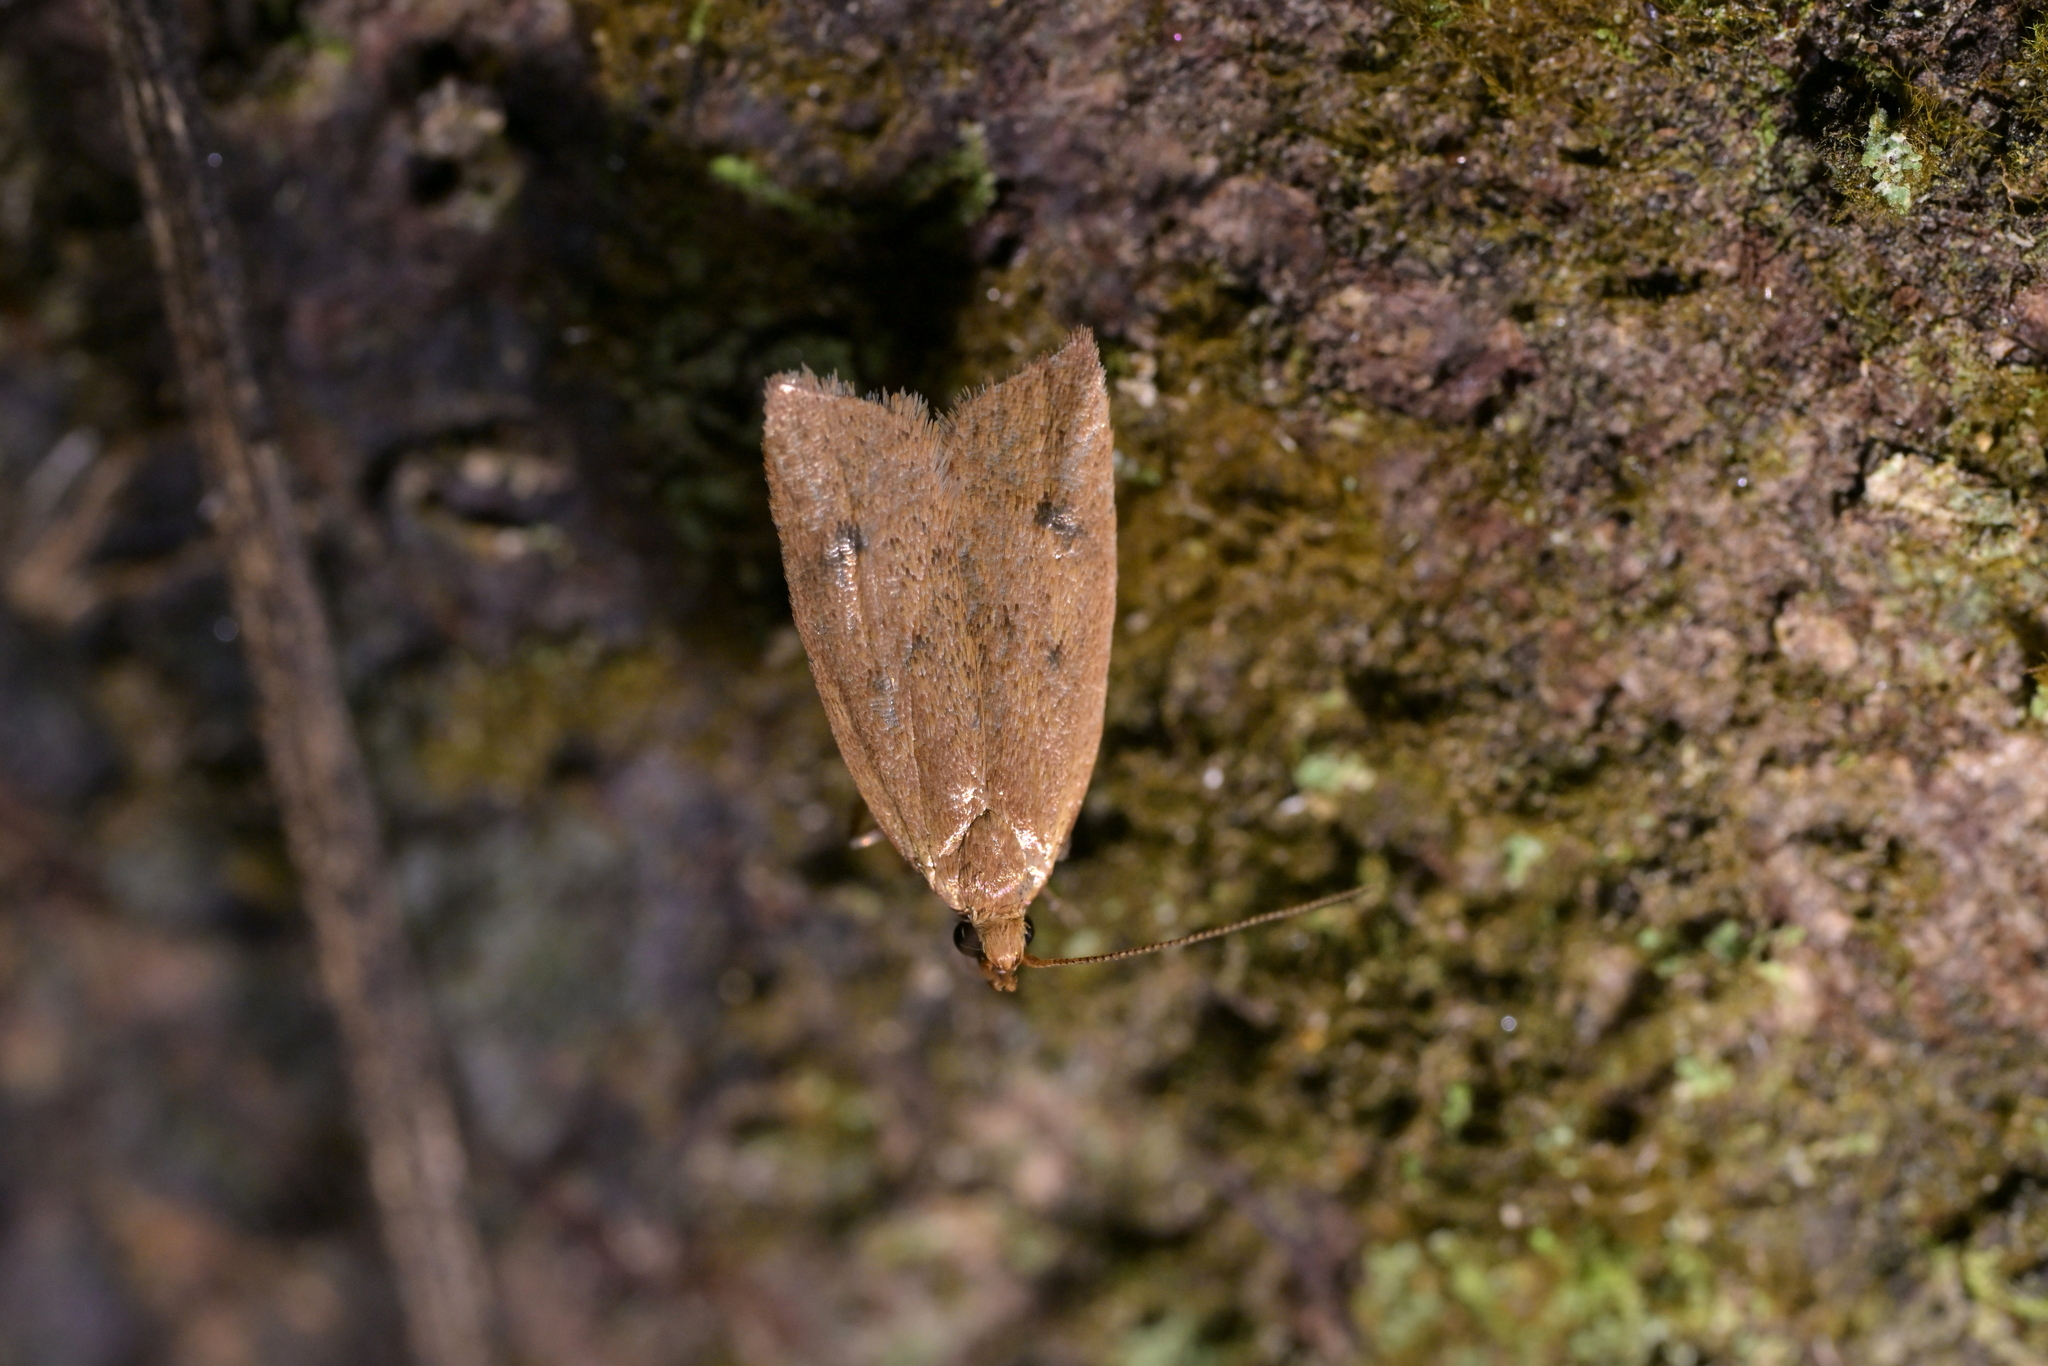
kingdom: Animalia
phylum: Arthropoda
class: Insecta
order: Lepidoptera
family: Oecophoridae
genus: Gymnobathra
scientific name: Gymnobathra sarcoxantha
